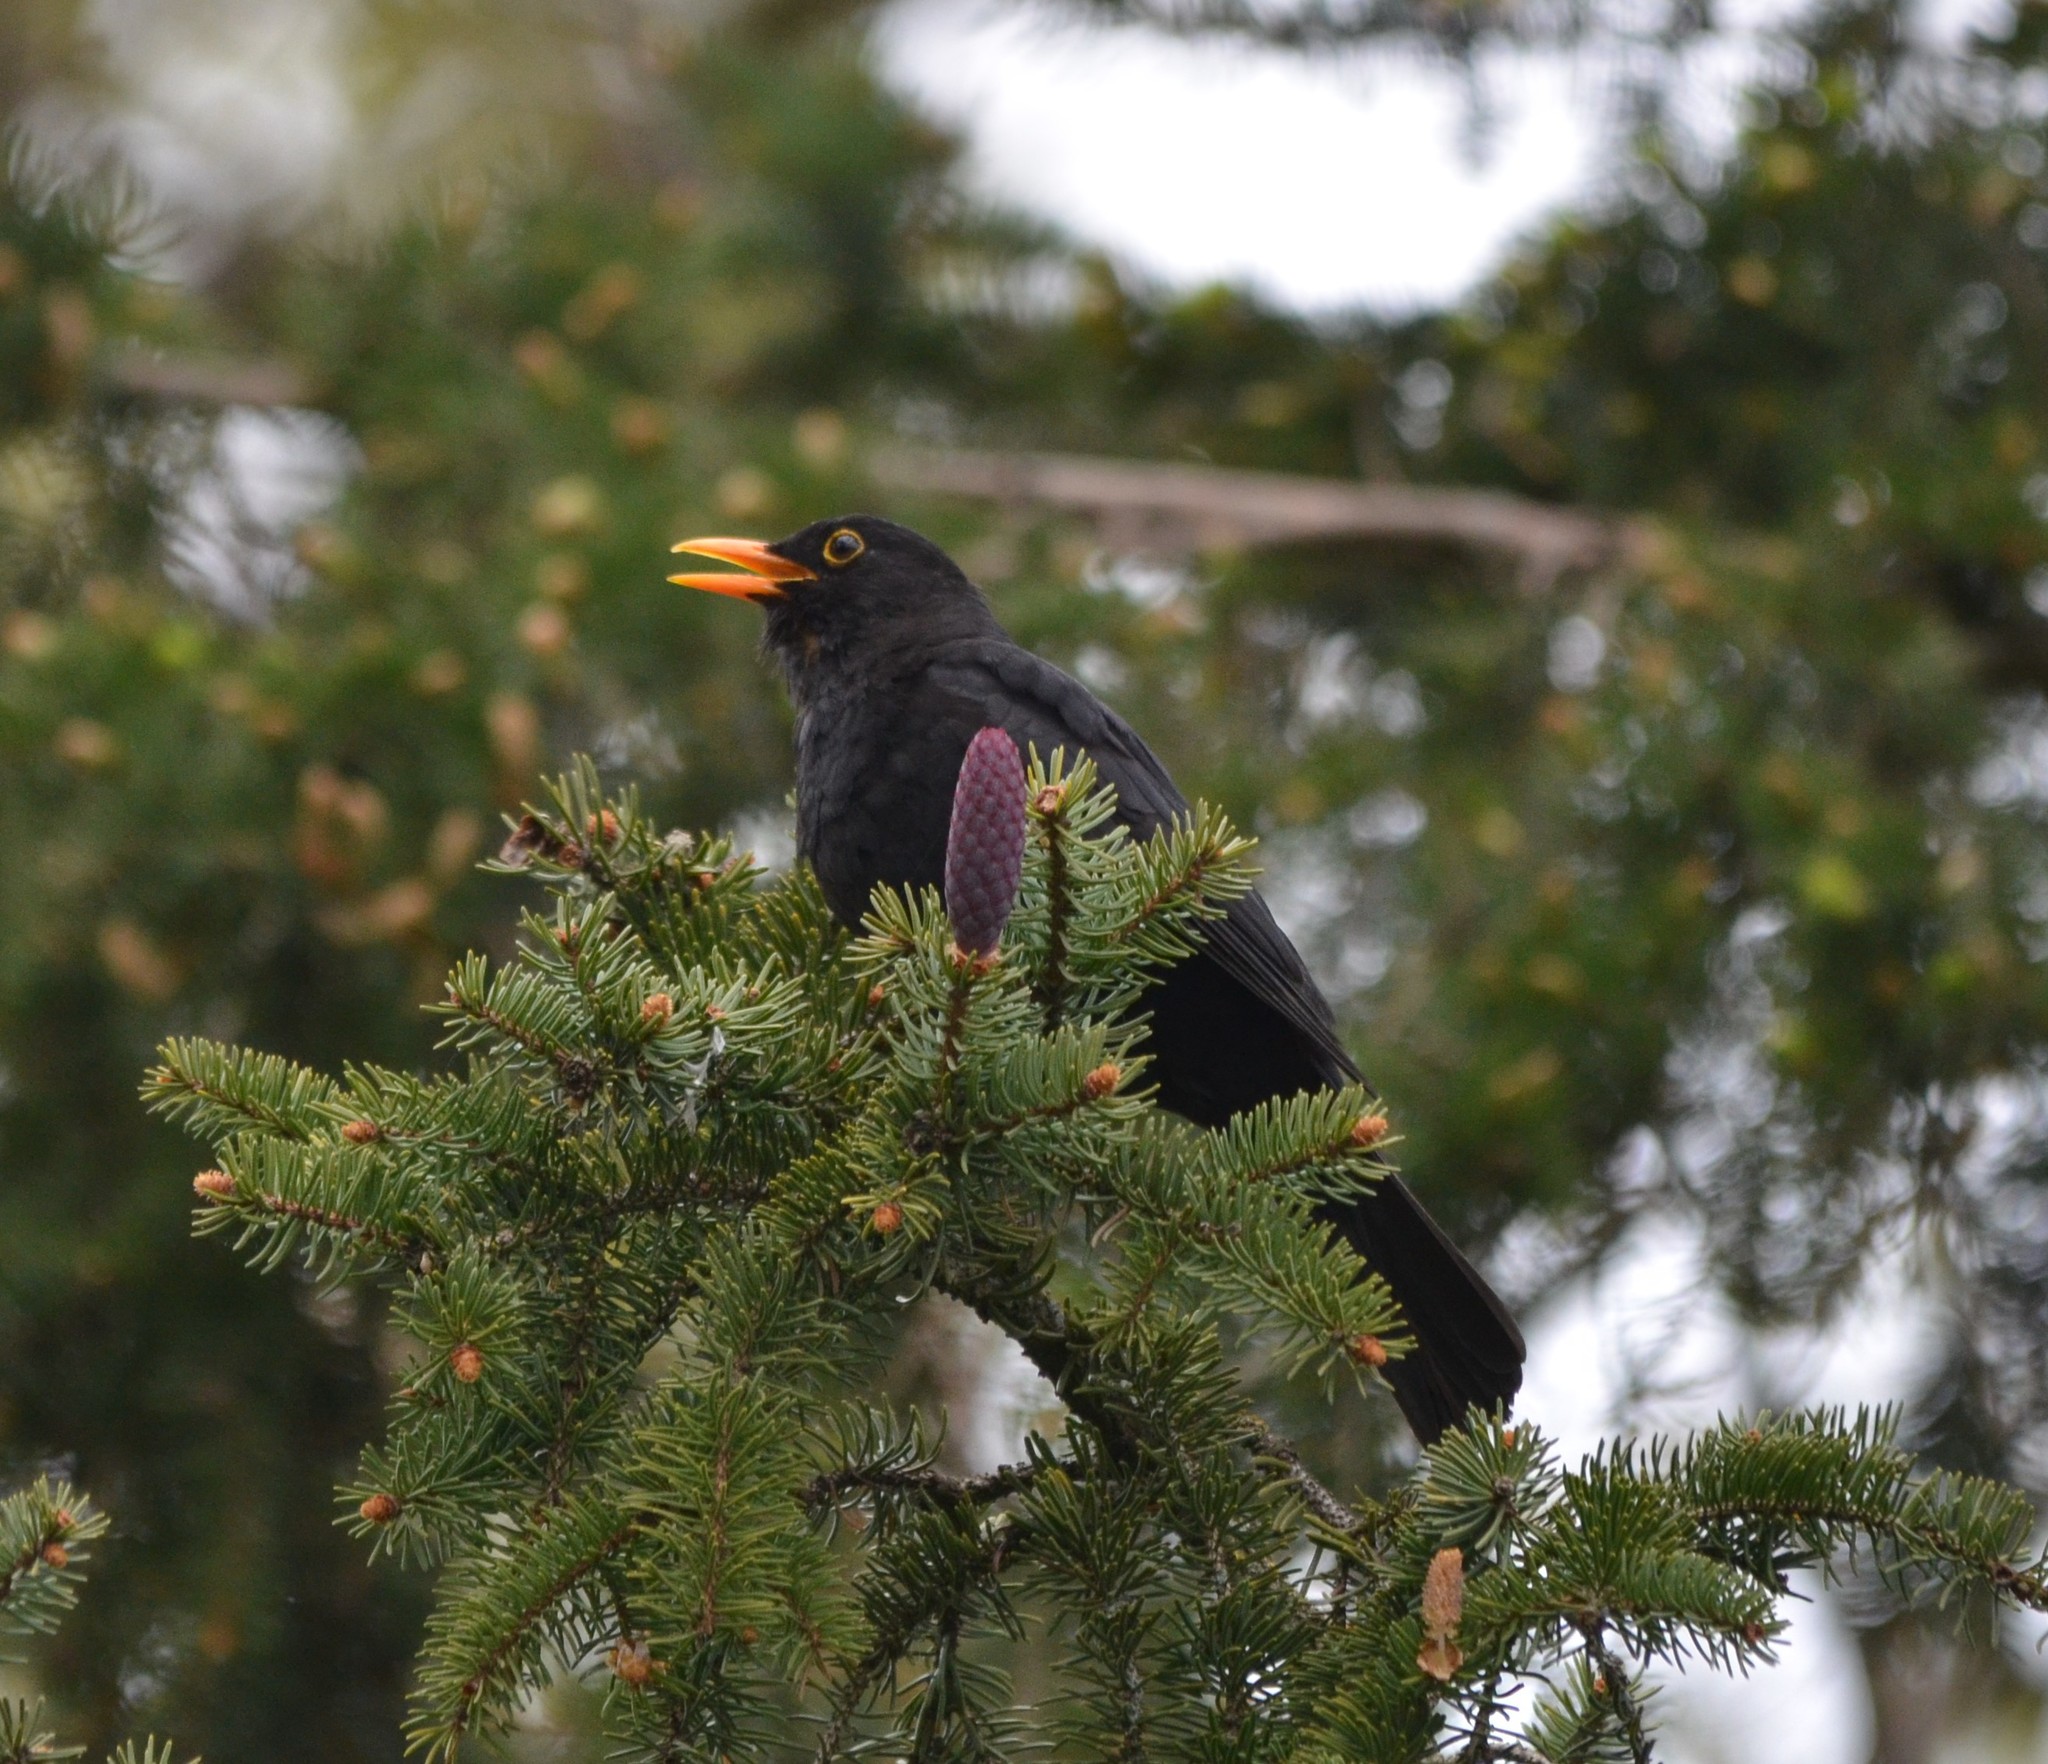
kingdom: Animalia
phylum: Chordata
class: Aves
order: Passeriformes
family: Turdidae
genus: Turdus
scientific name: Turdus merula
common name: Common blackbird
